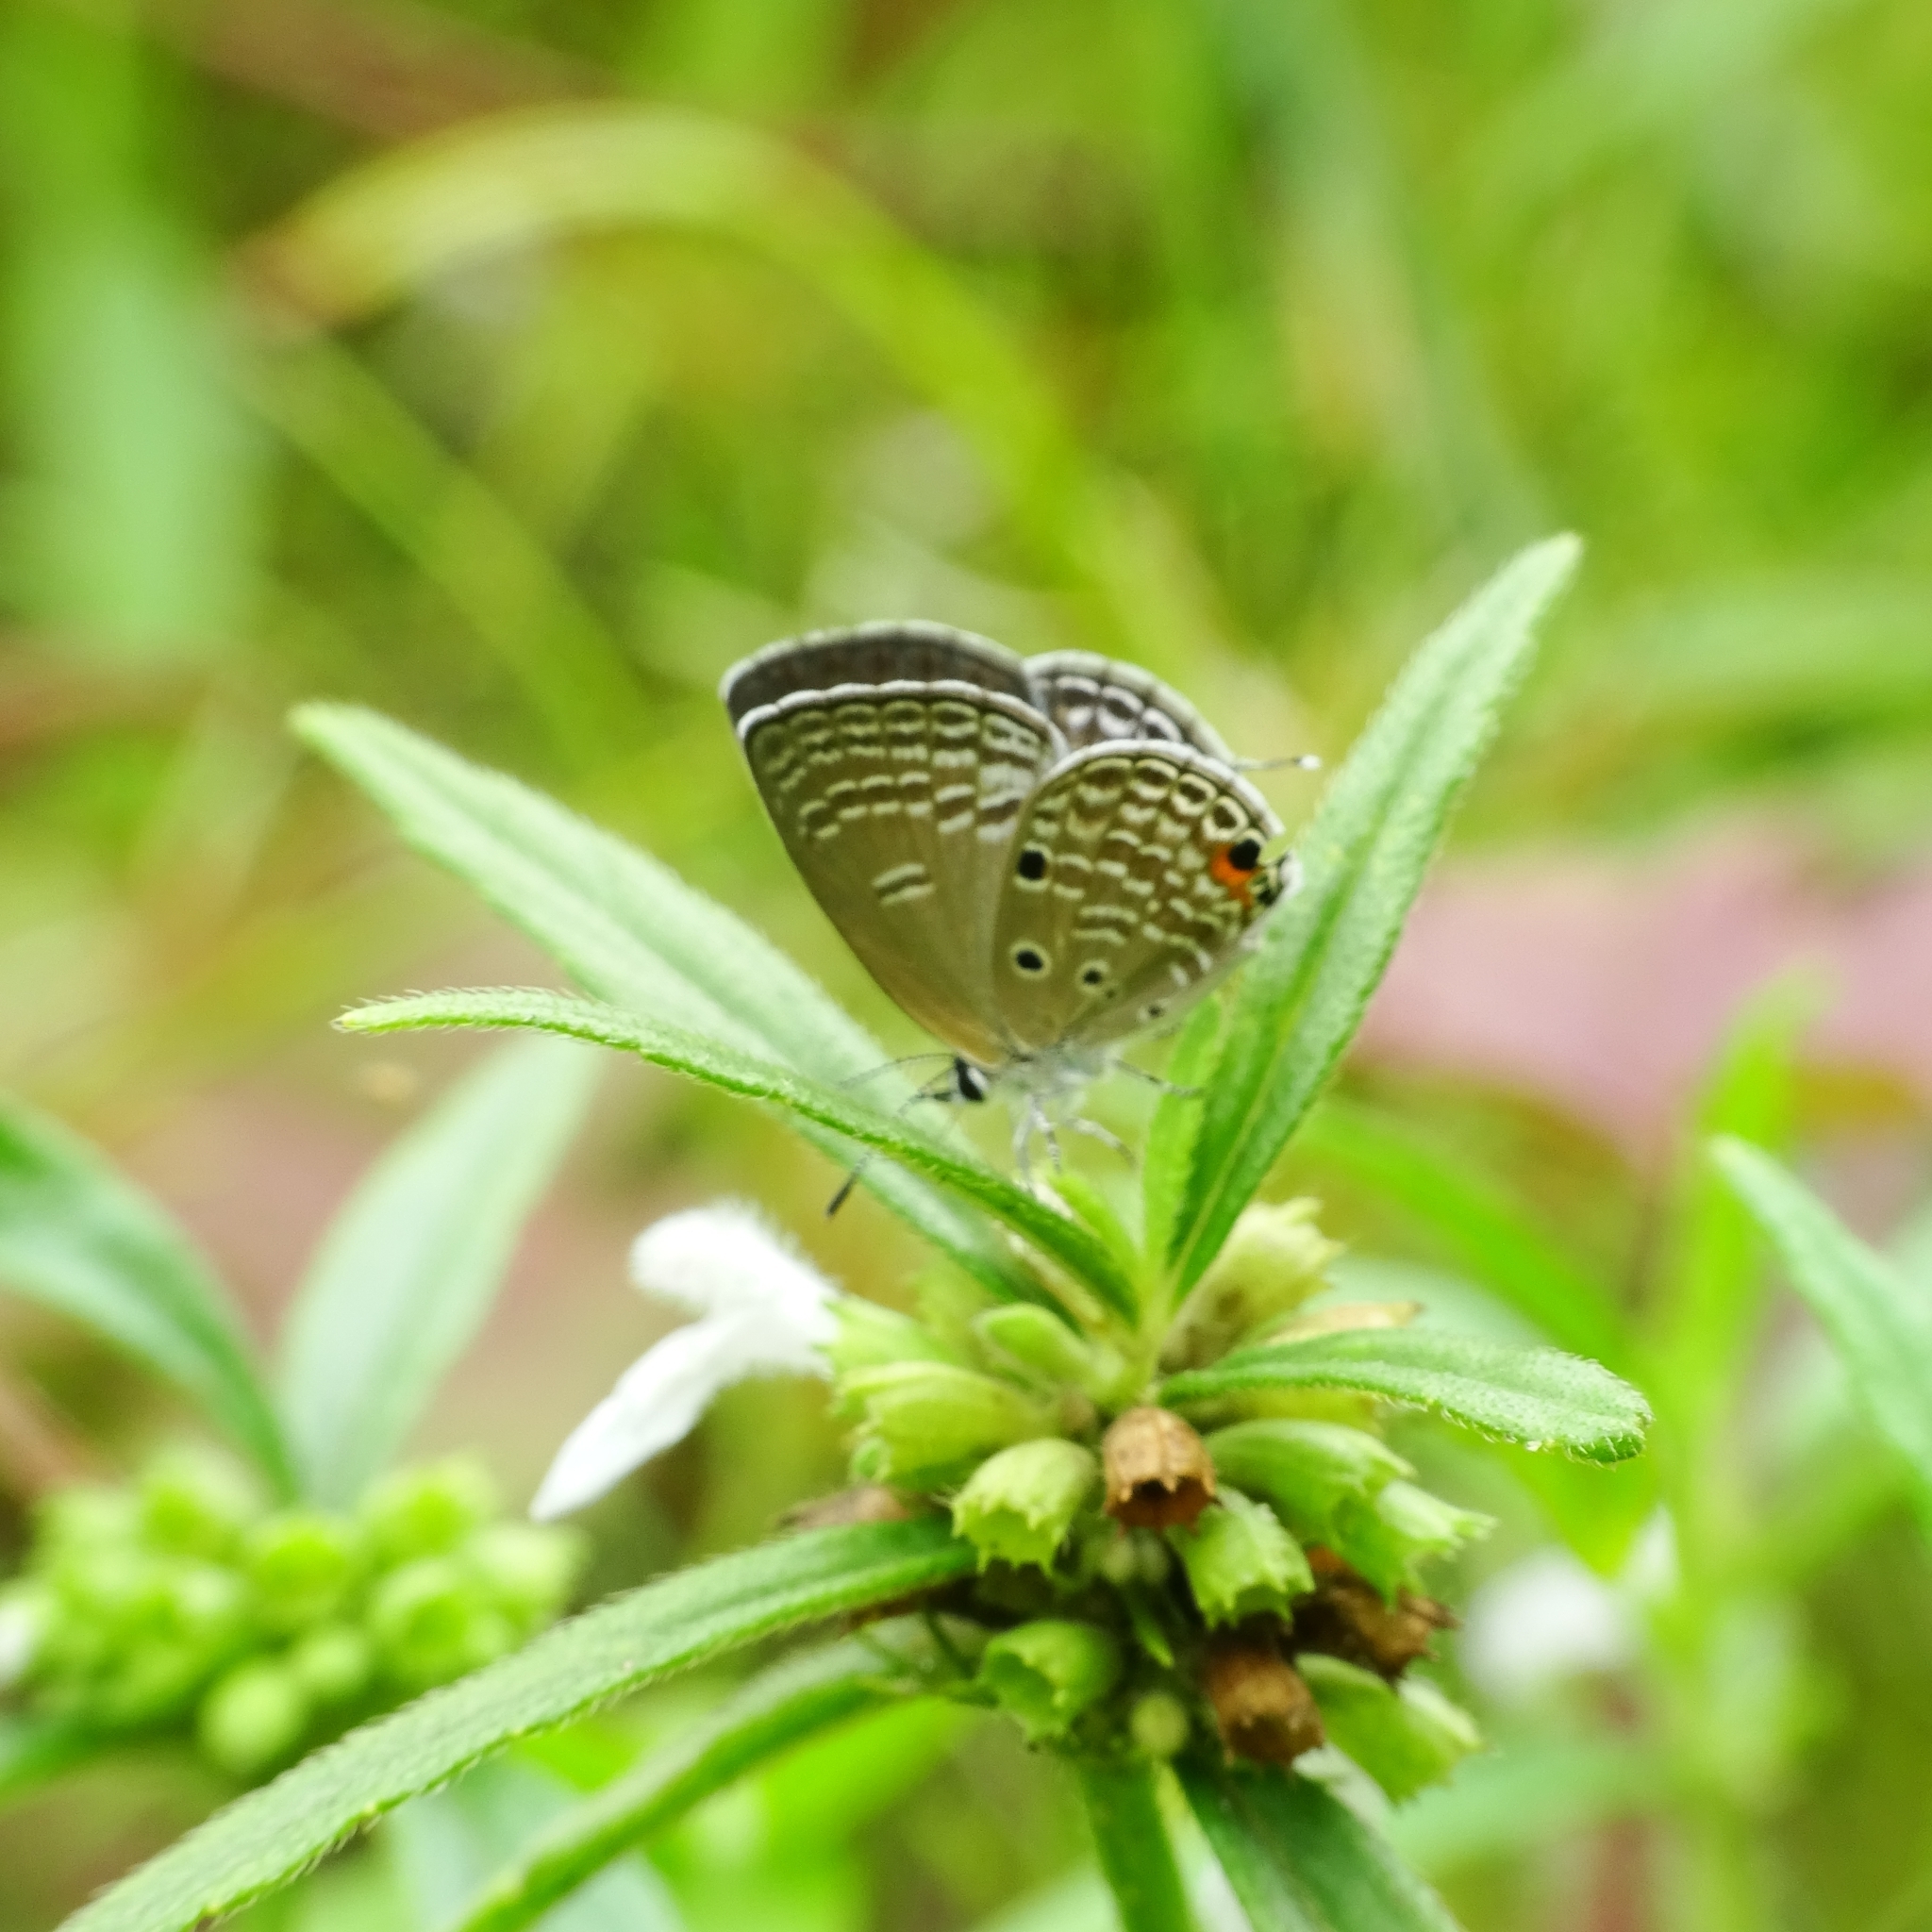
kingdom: Animalia
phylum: Arthropoda
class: Insecta
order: Lepidoptera
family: Lycaenidae
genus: Luthrodes
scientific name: Luthrodes pandava
